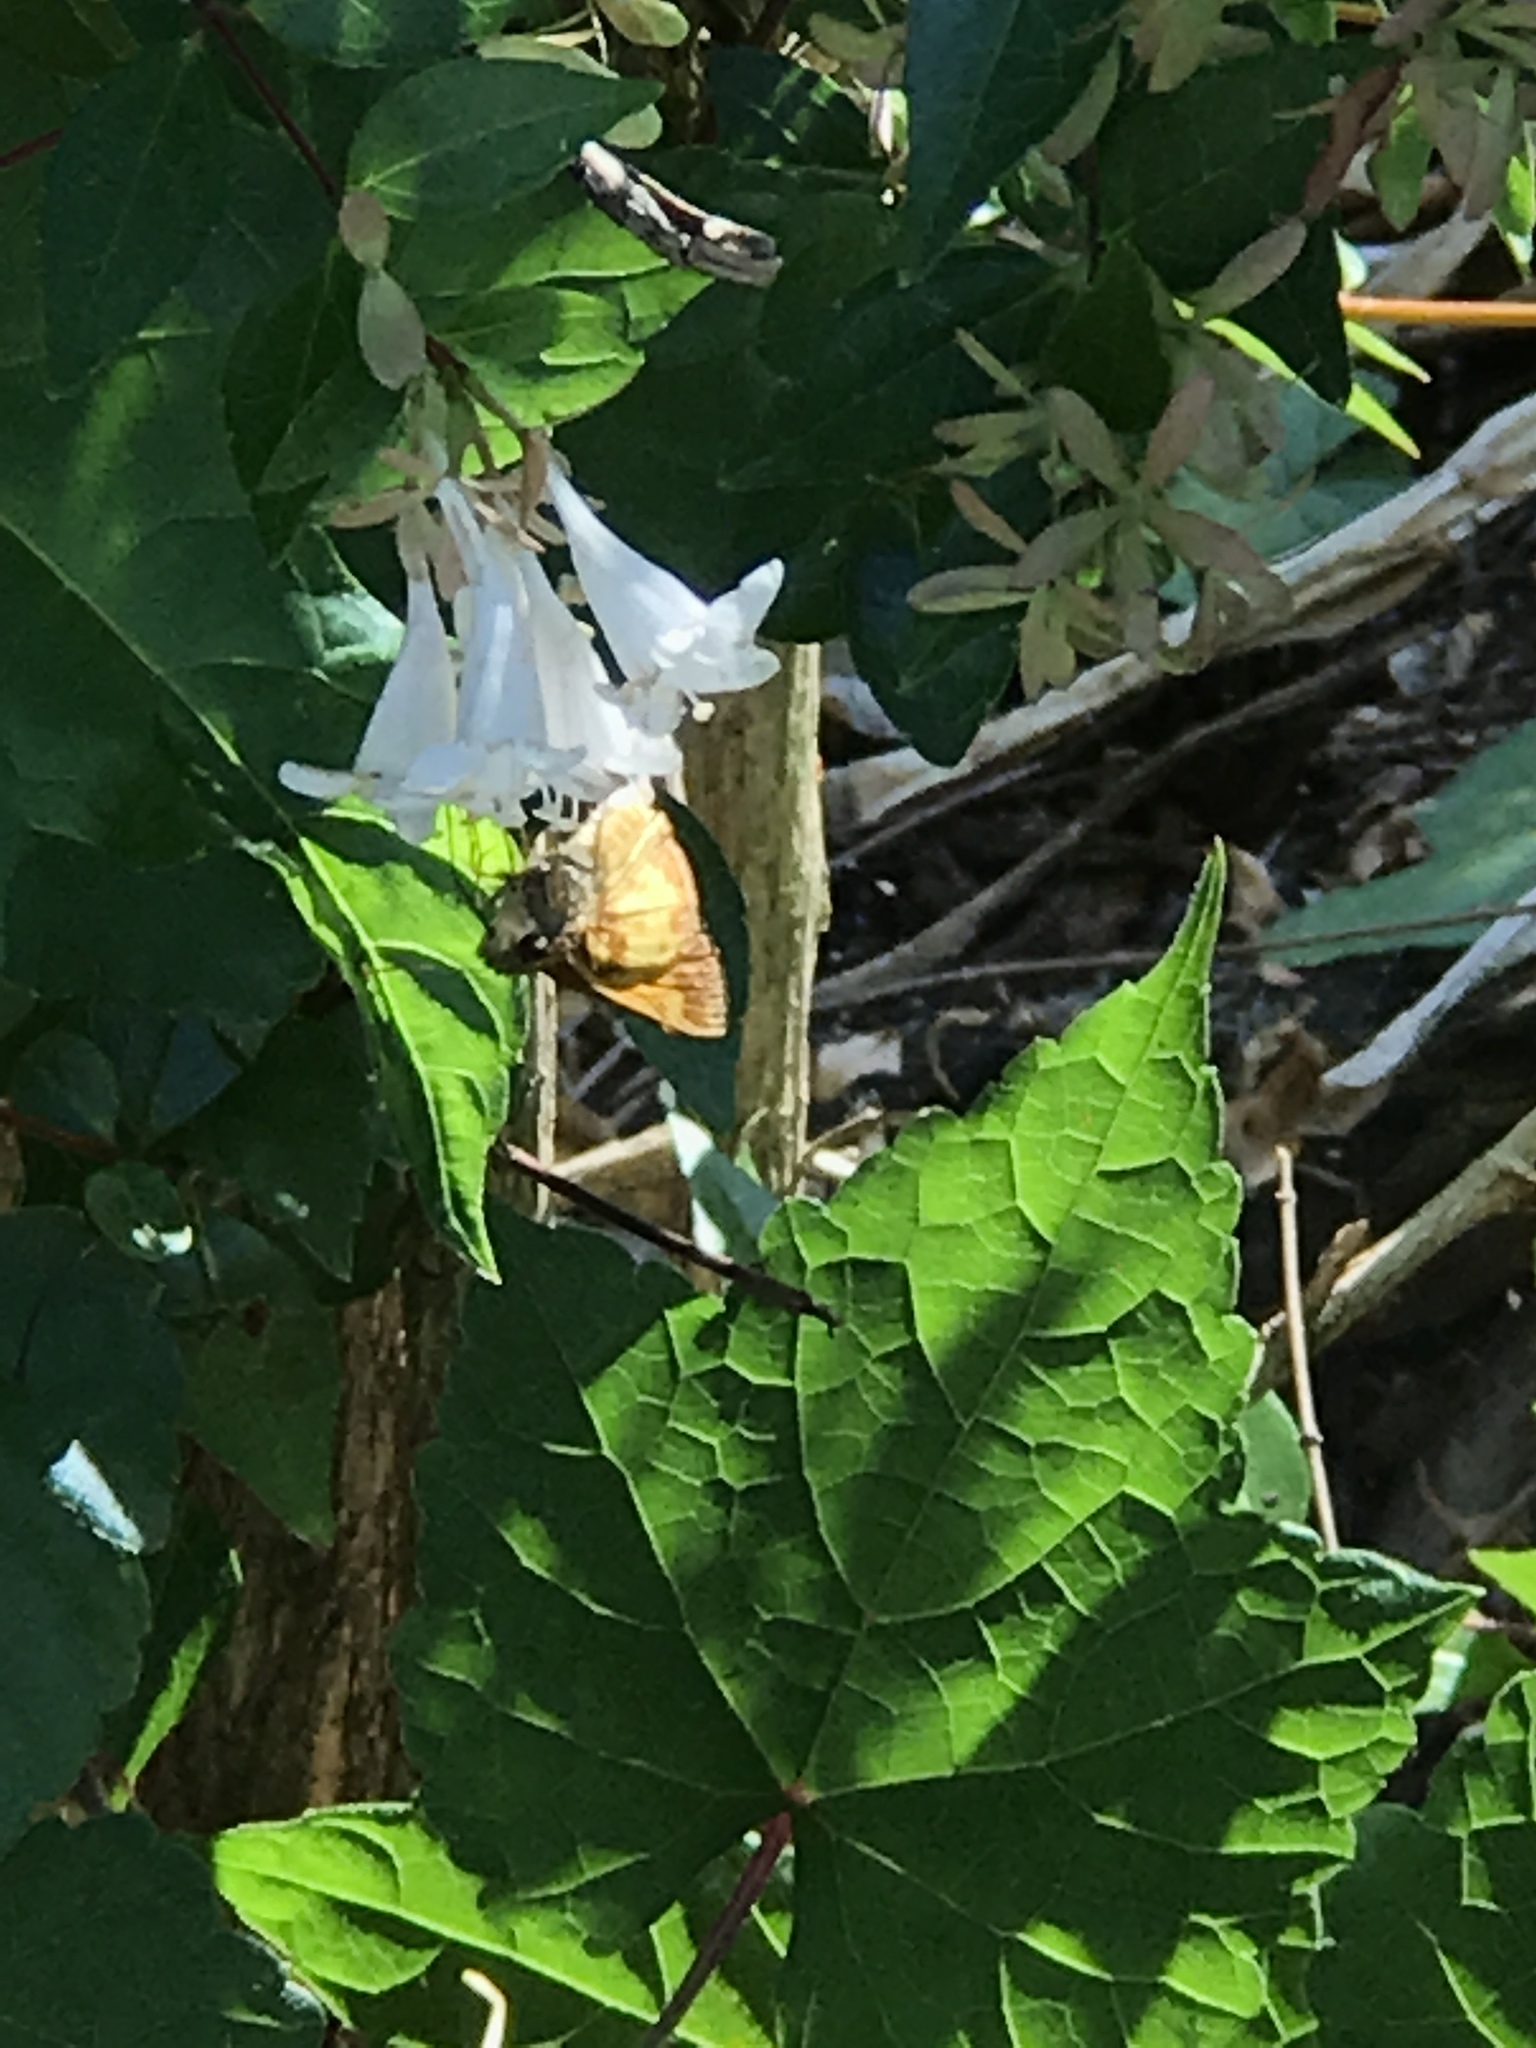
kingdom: Animalia
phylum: Arthropoda
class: Insecta
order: Lepidoptera
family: Hesperiidae
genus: Lon
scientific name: Lon zabulon
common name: Zabulon skipper
